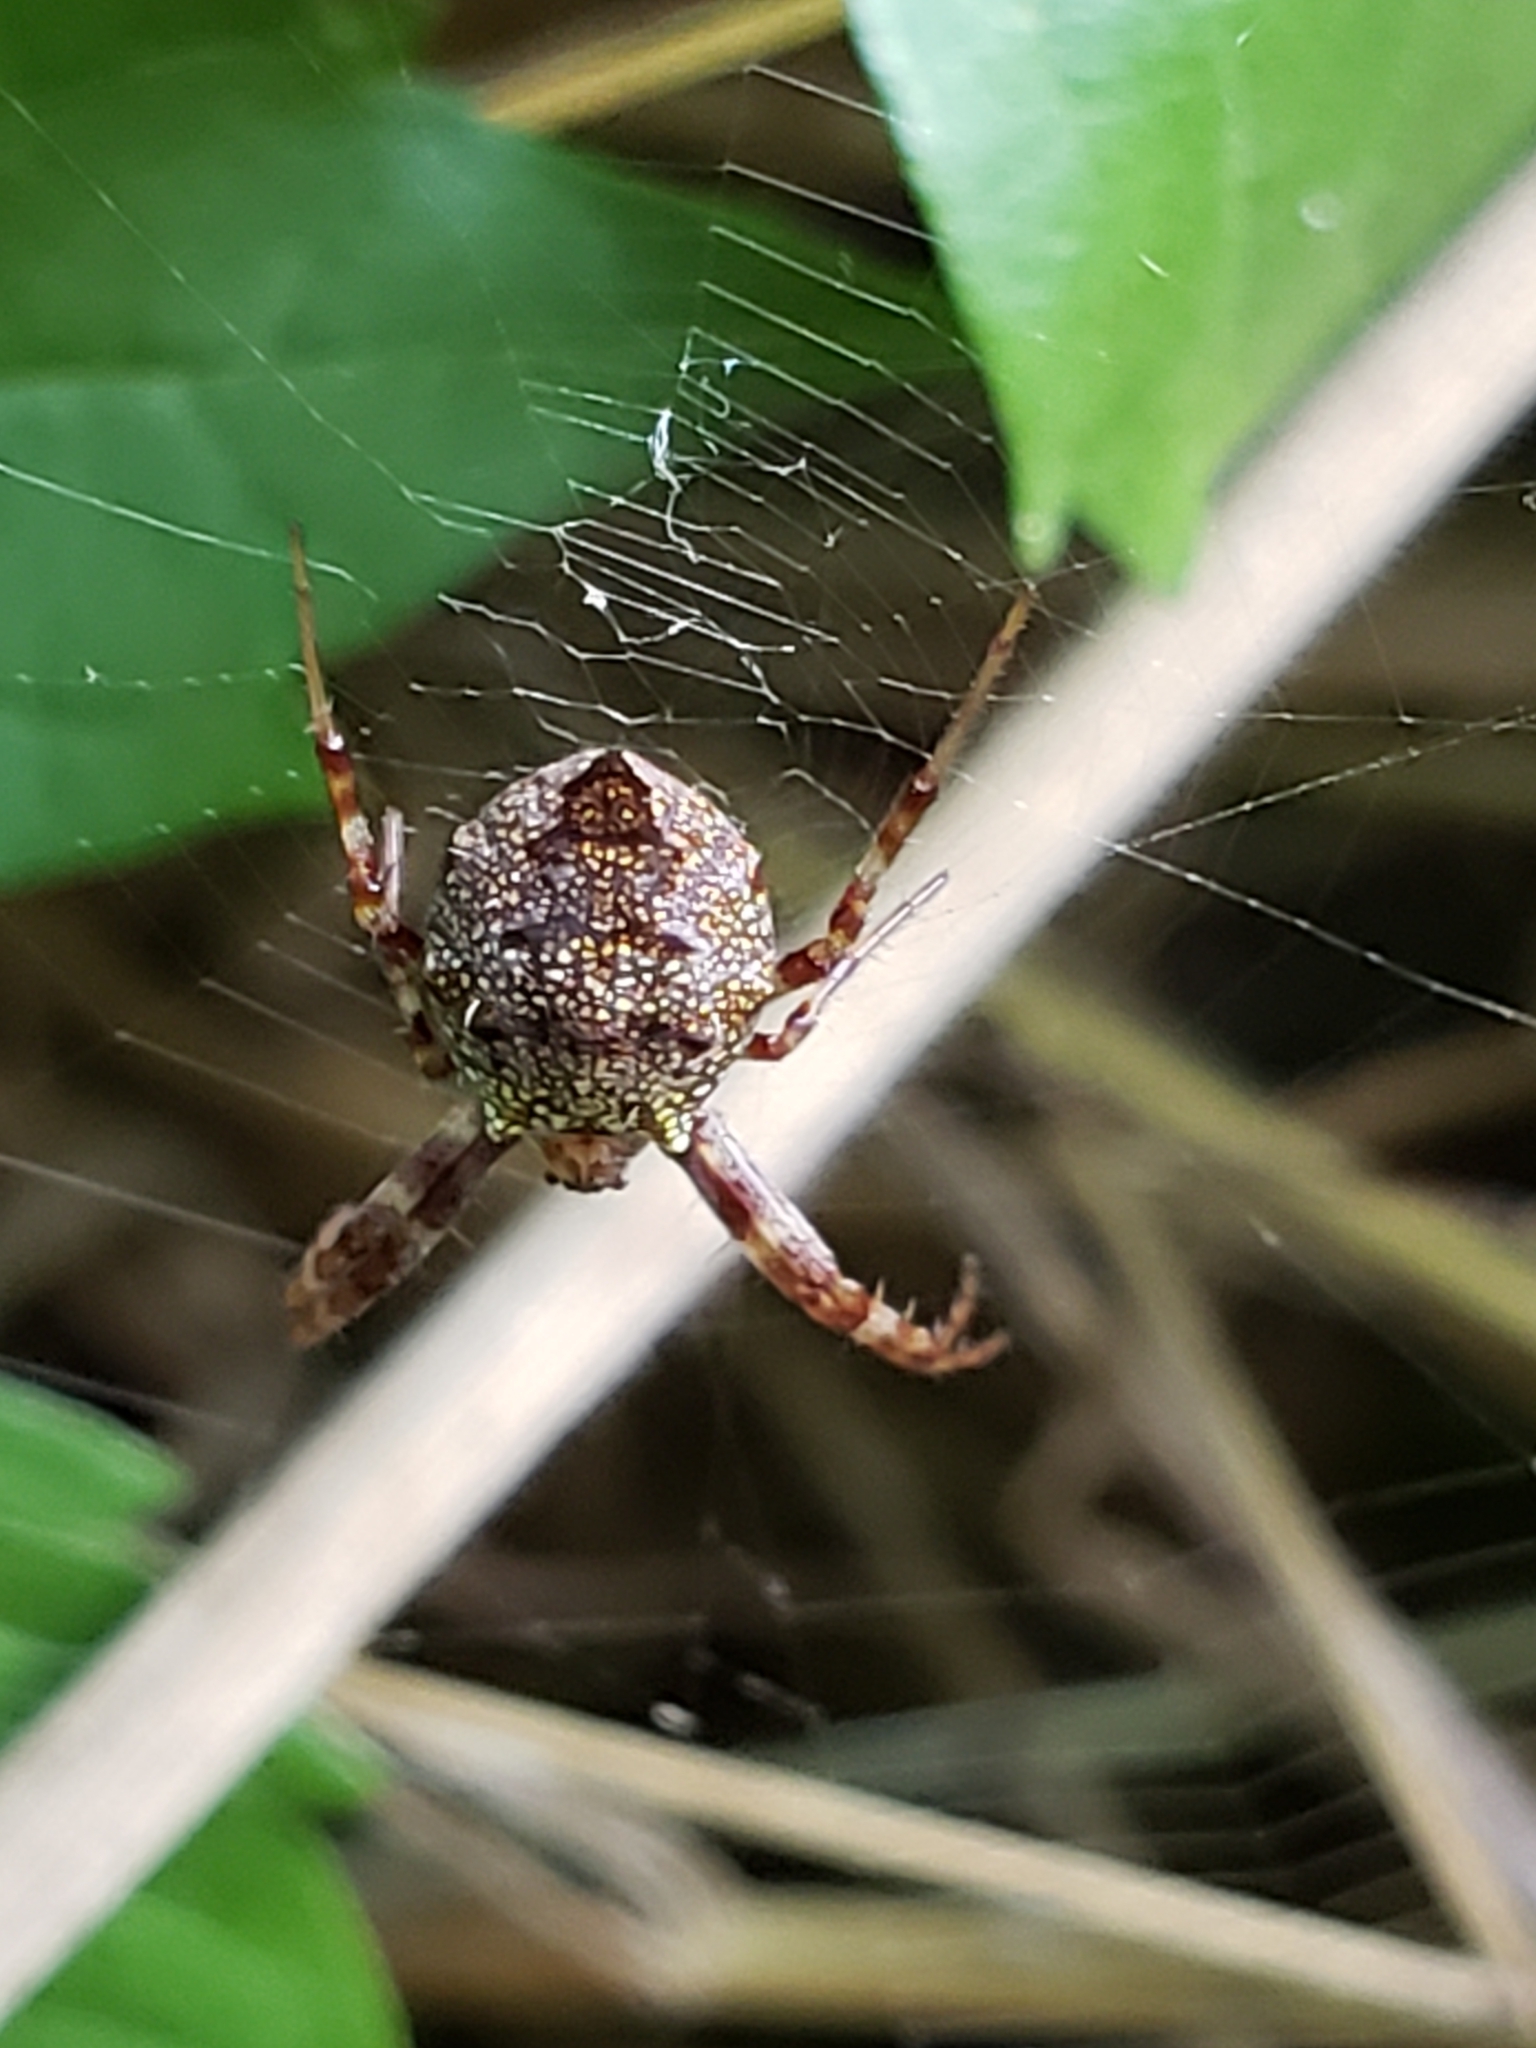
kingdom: Animalia
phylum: Arthropoda
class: Arachnida
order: Araneae
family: Araneidae
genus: Gea
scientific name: Gea heptagon
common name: Orb weavers
